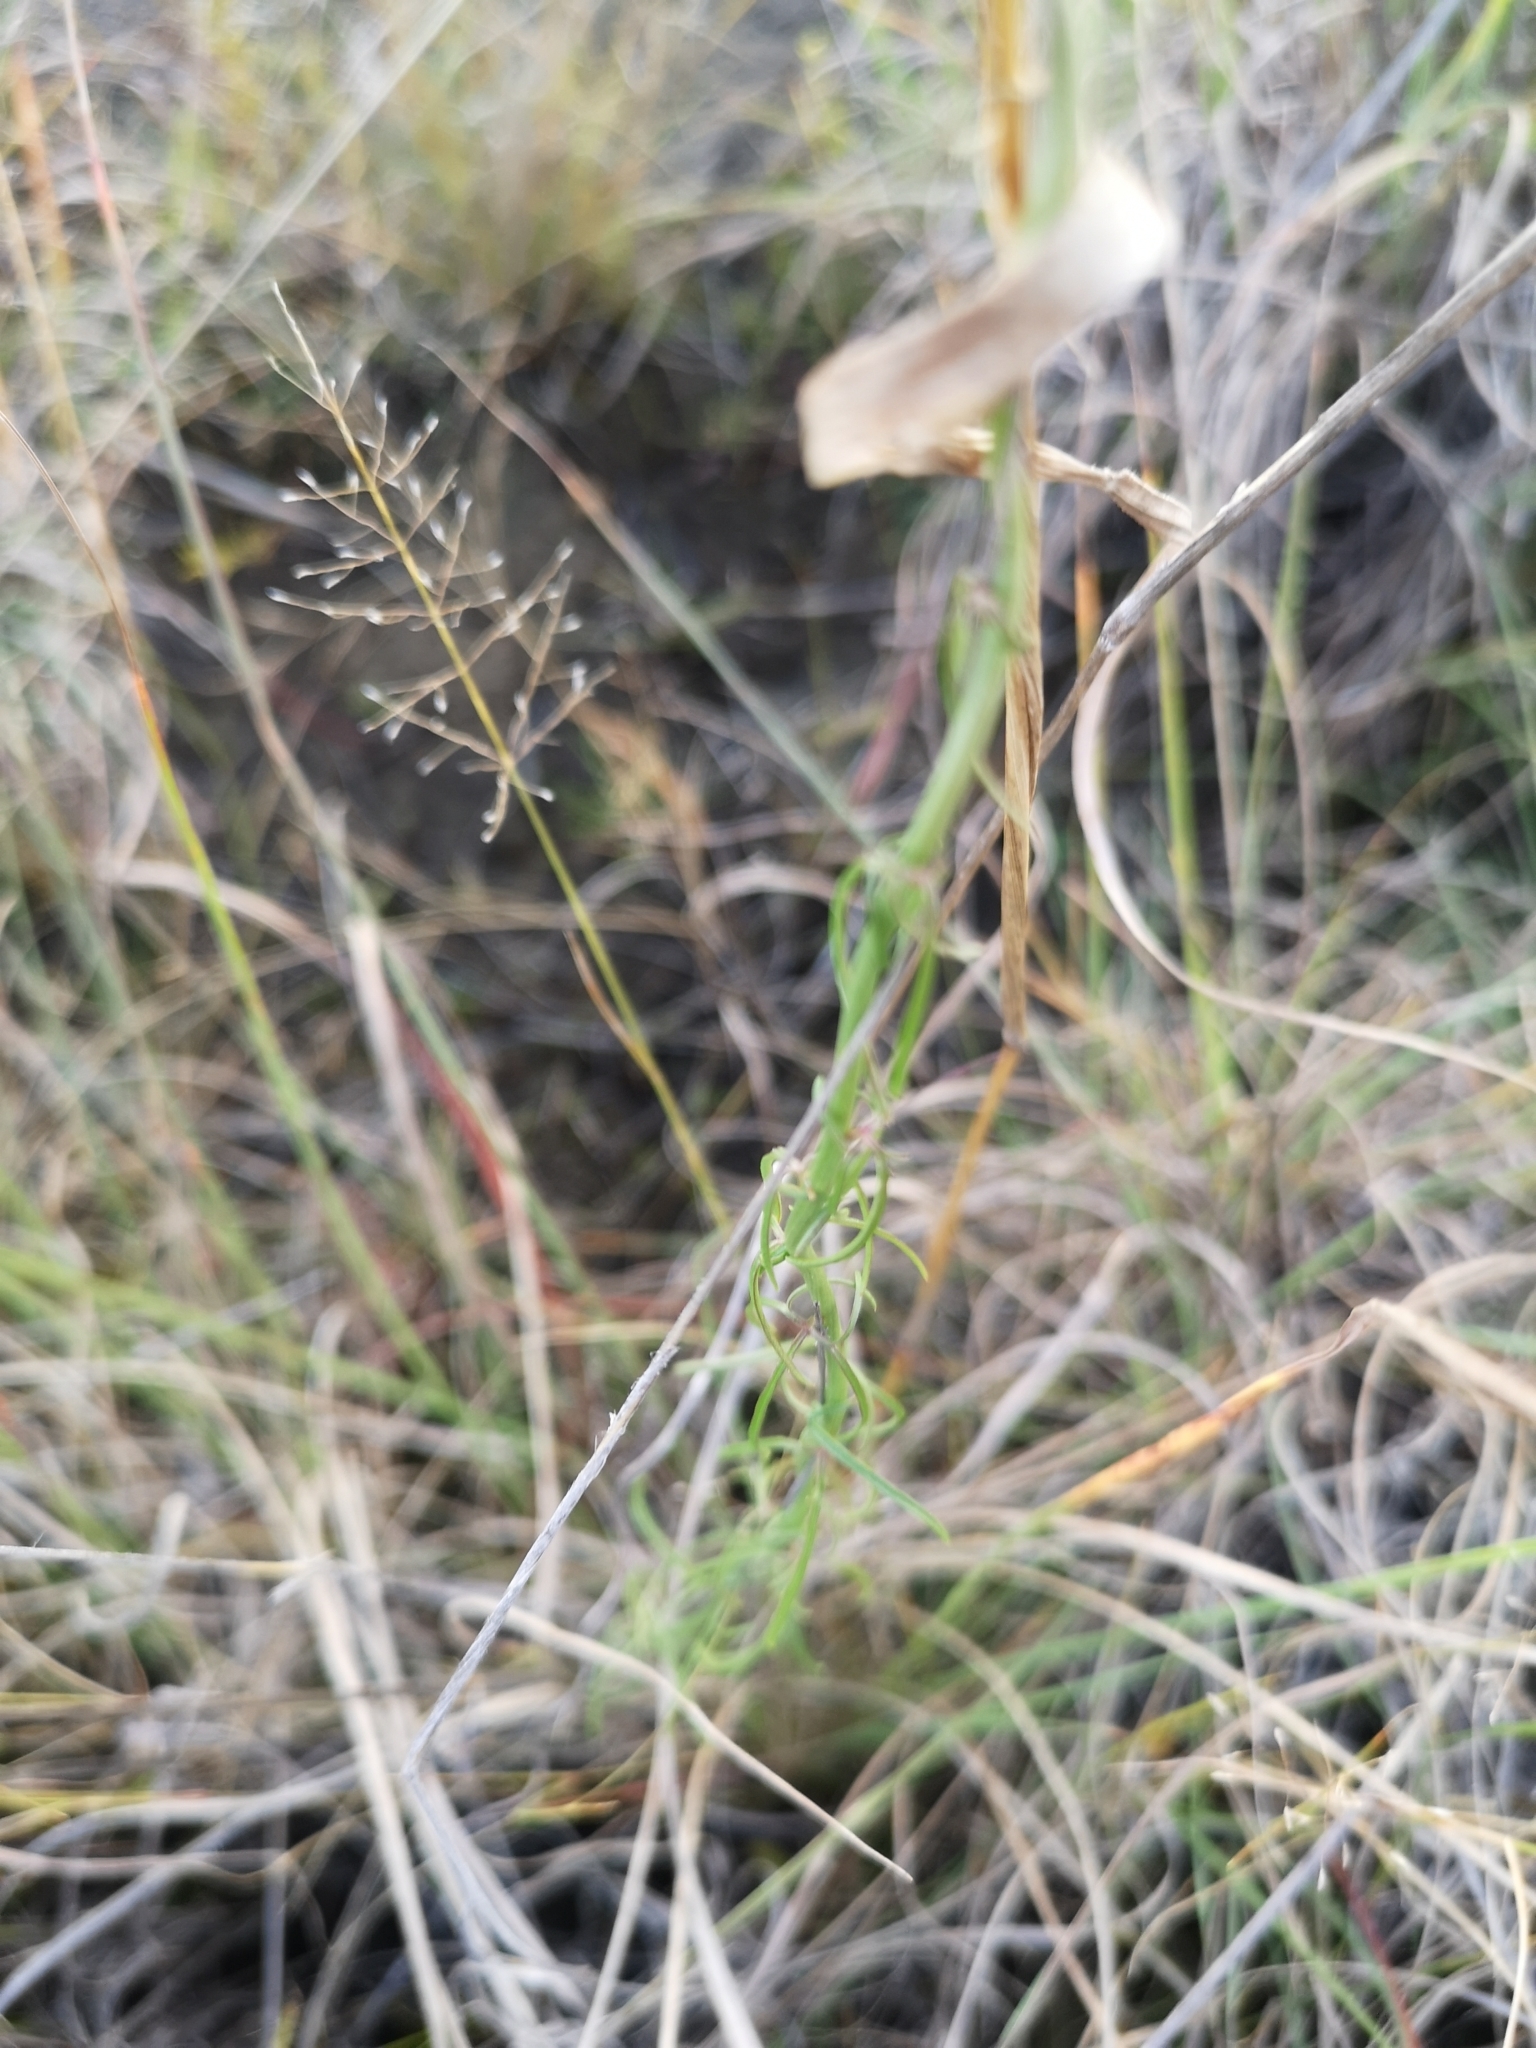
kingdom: Plantae
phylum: Tracheophyta
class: Magnoliopsida
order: Asterales
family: Campanulaceae
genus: Cyphia
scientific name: Cyphia stenopetala
